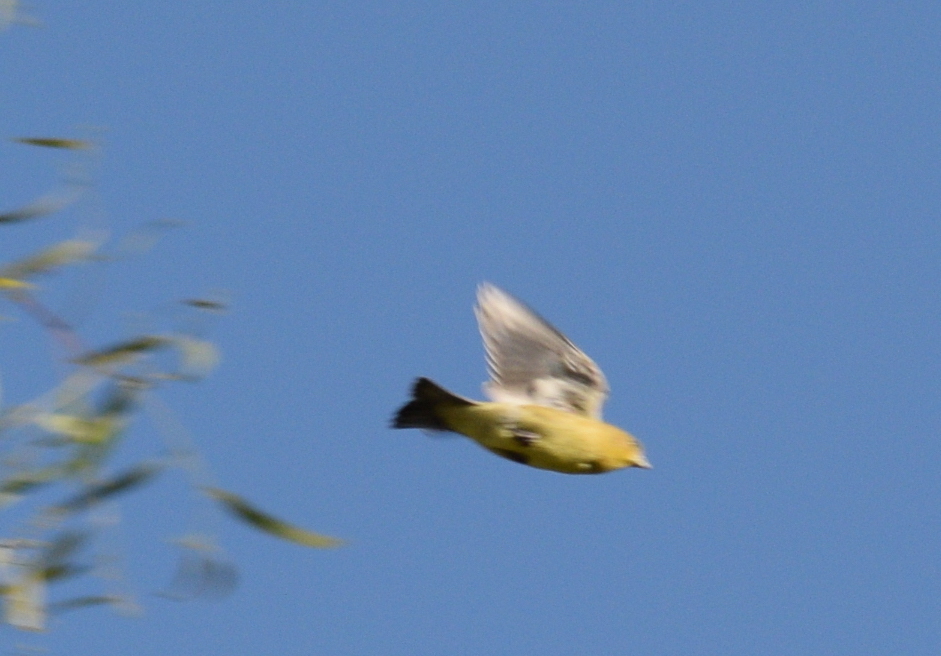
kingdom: Animalia
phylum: Chordata
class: Aves
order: Passeriformes
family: Fringillidae
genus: Spinus
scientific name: Spinus psaltria
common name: Lesser goldfinch
